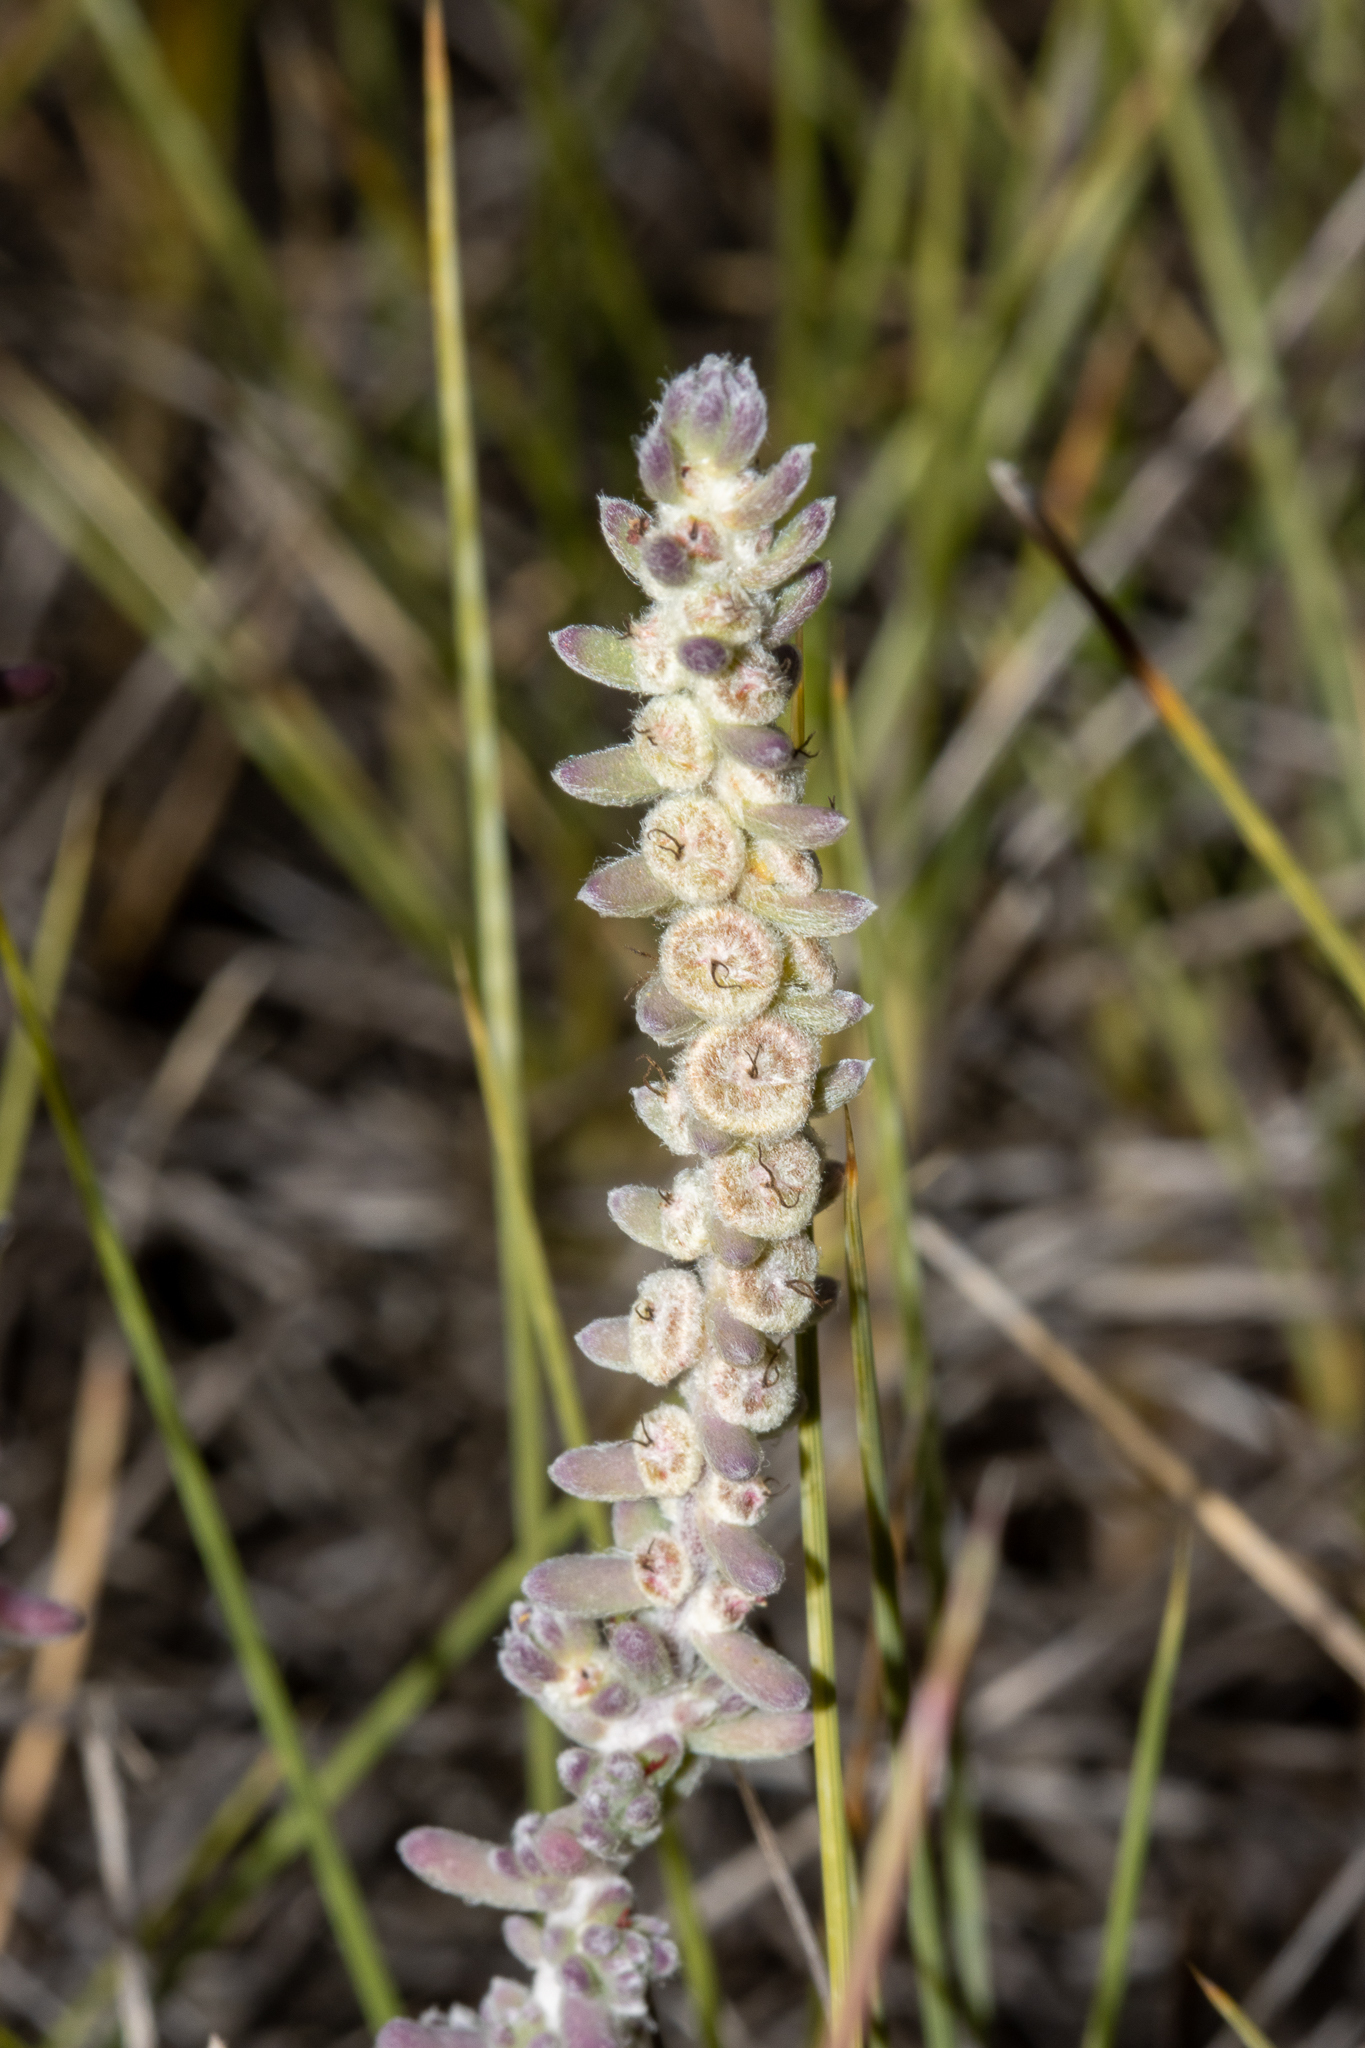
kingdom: Plantae
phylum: Tracheophyta
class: Magnoliopsida
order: Caryophyllales
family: Amaranthaceae
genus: Maireana
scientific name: Maireana trichoptera
